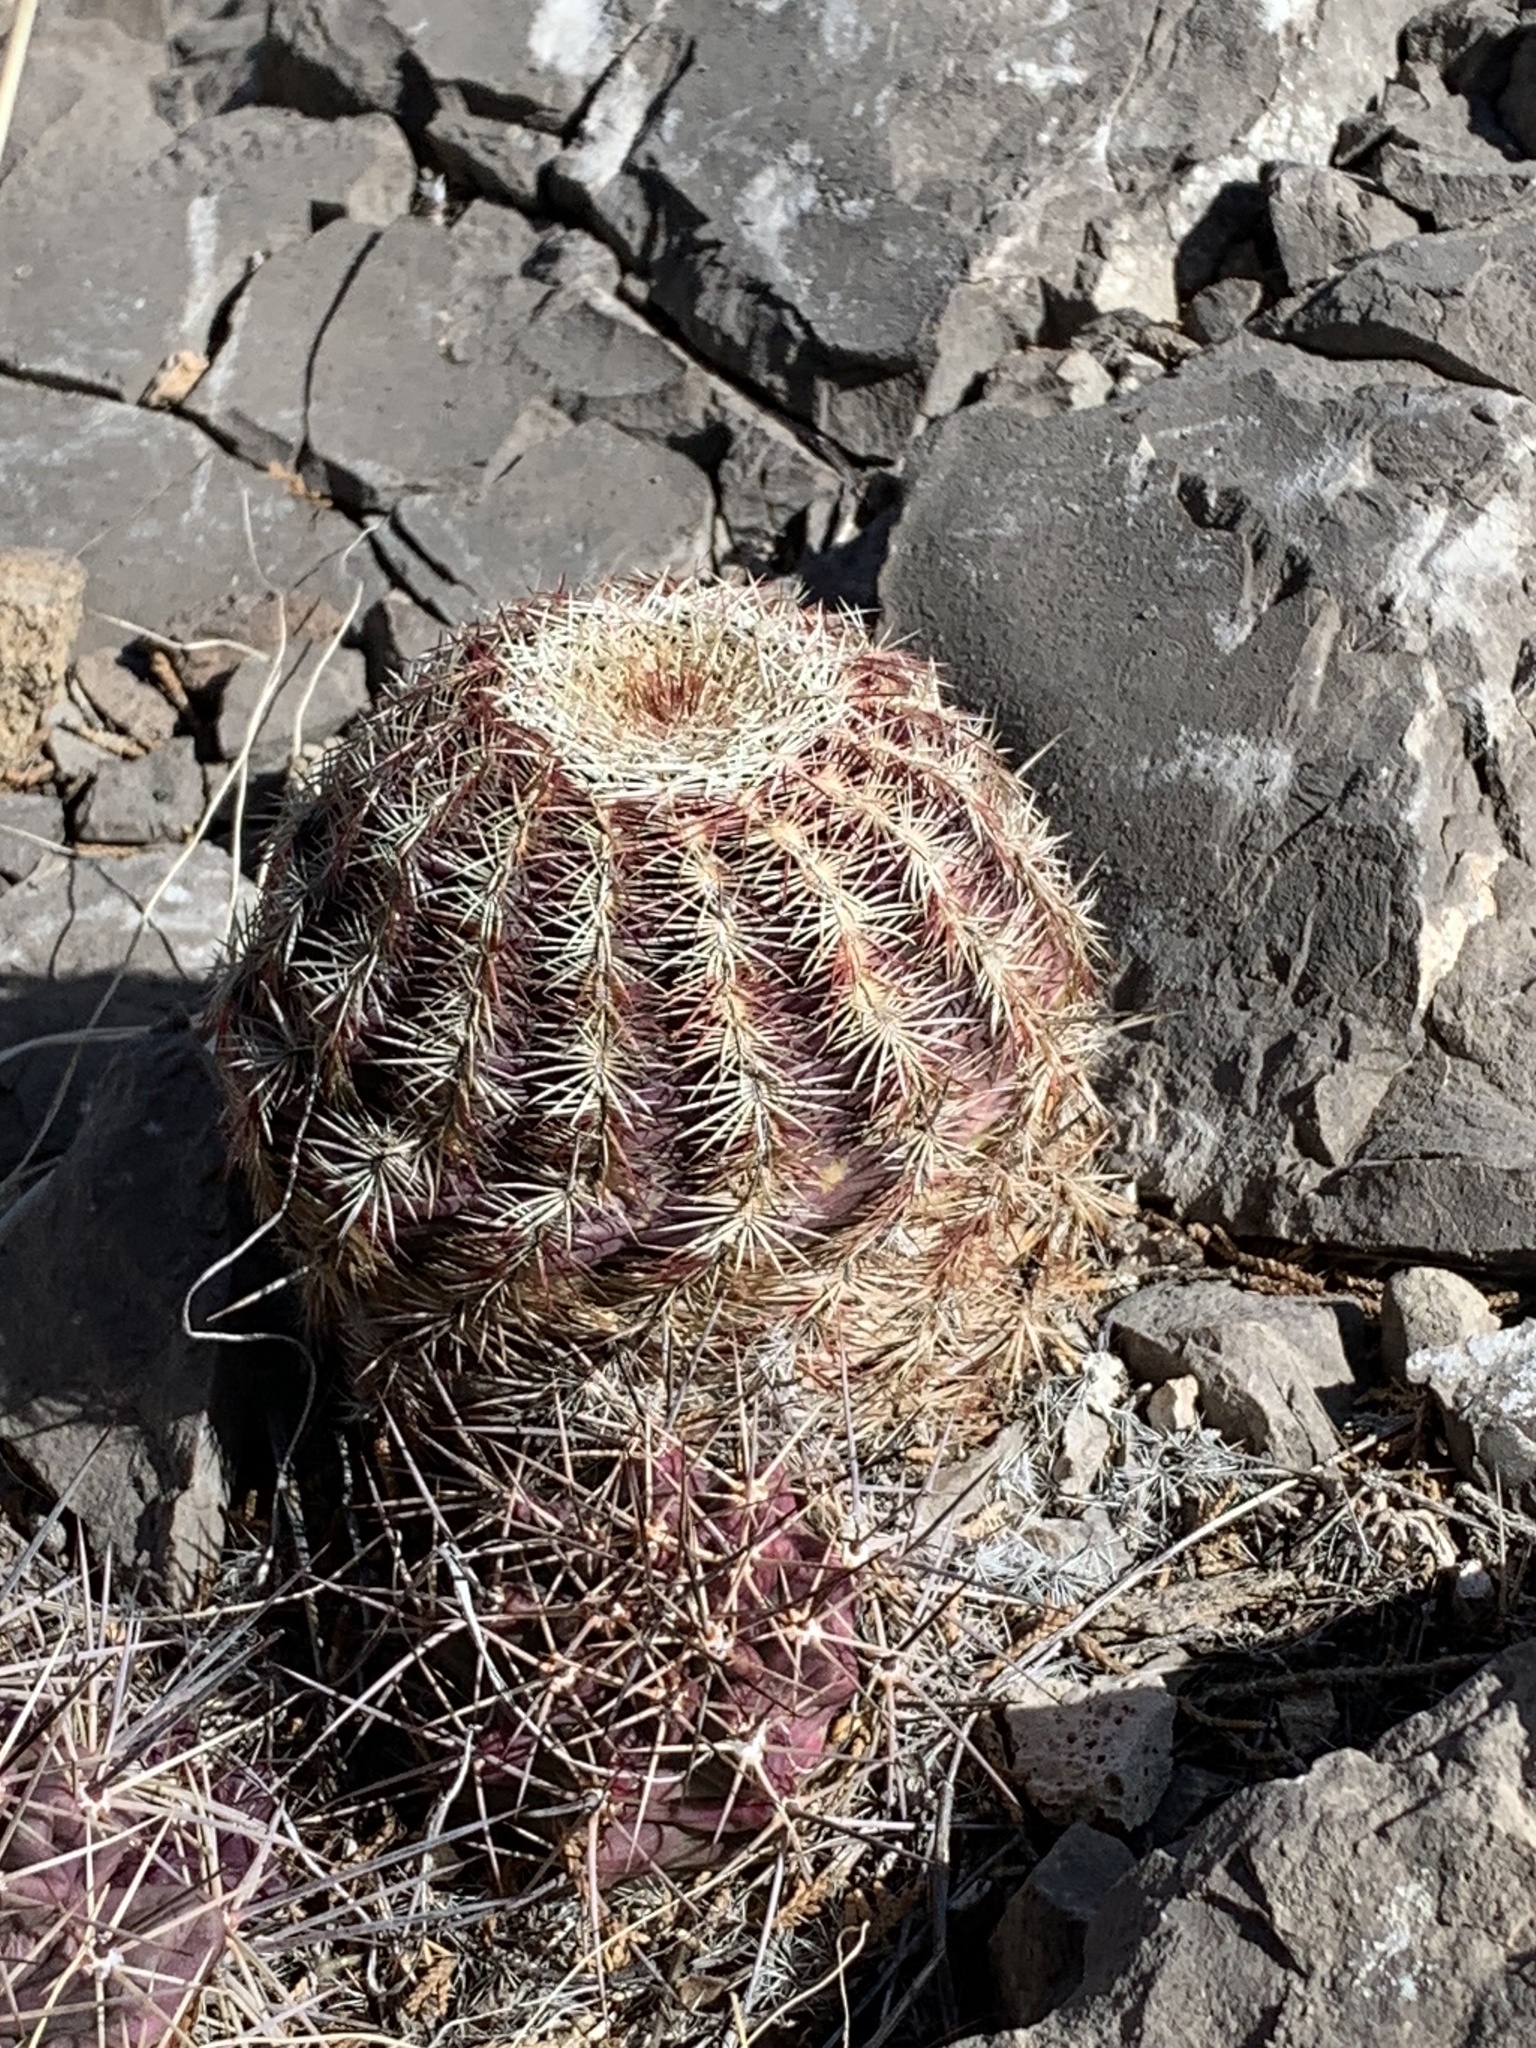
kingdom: Plantae
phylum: Tracheophyta
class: Magnoliopsida
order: Caryophyllales
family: Cactaceae
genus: Echinocereus
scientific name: Echinocereus viridiflorus
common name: Nylon hedgehog cactus
